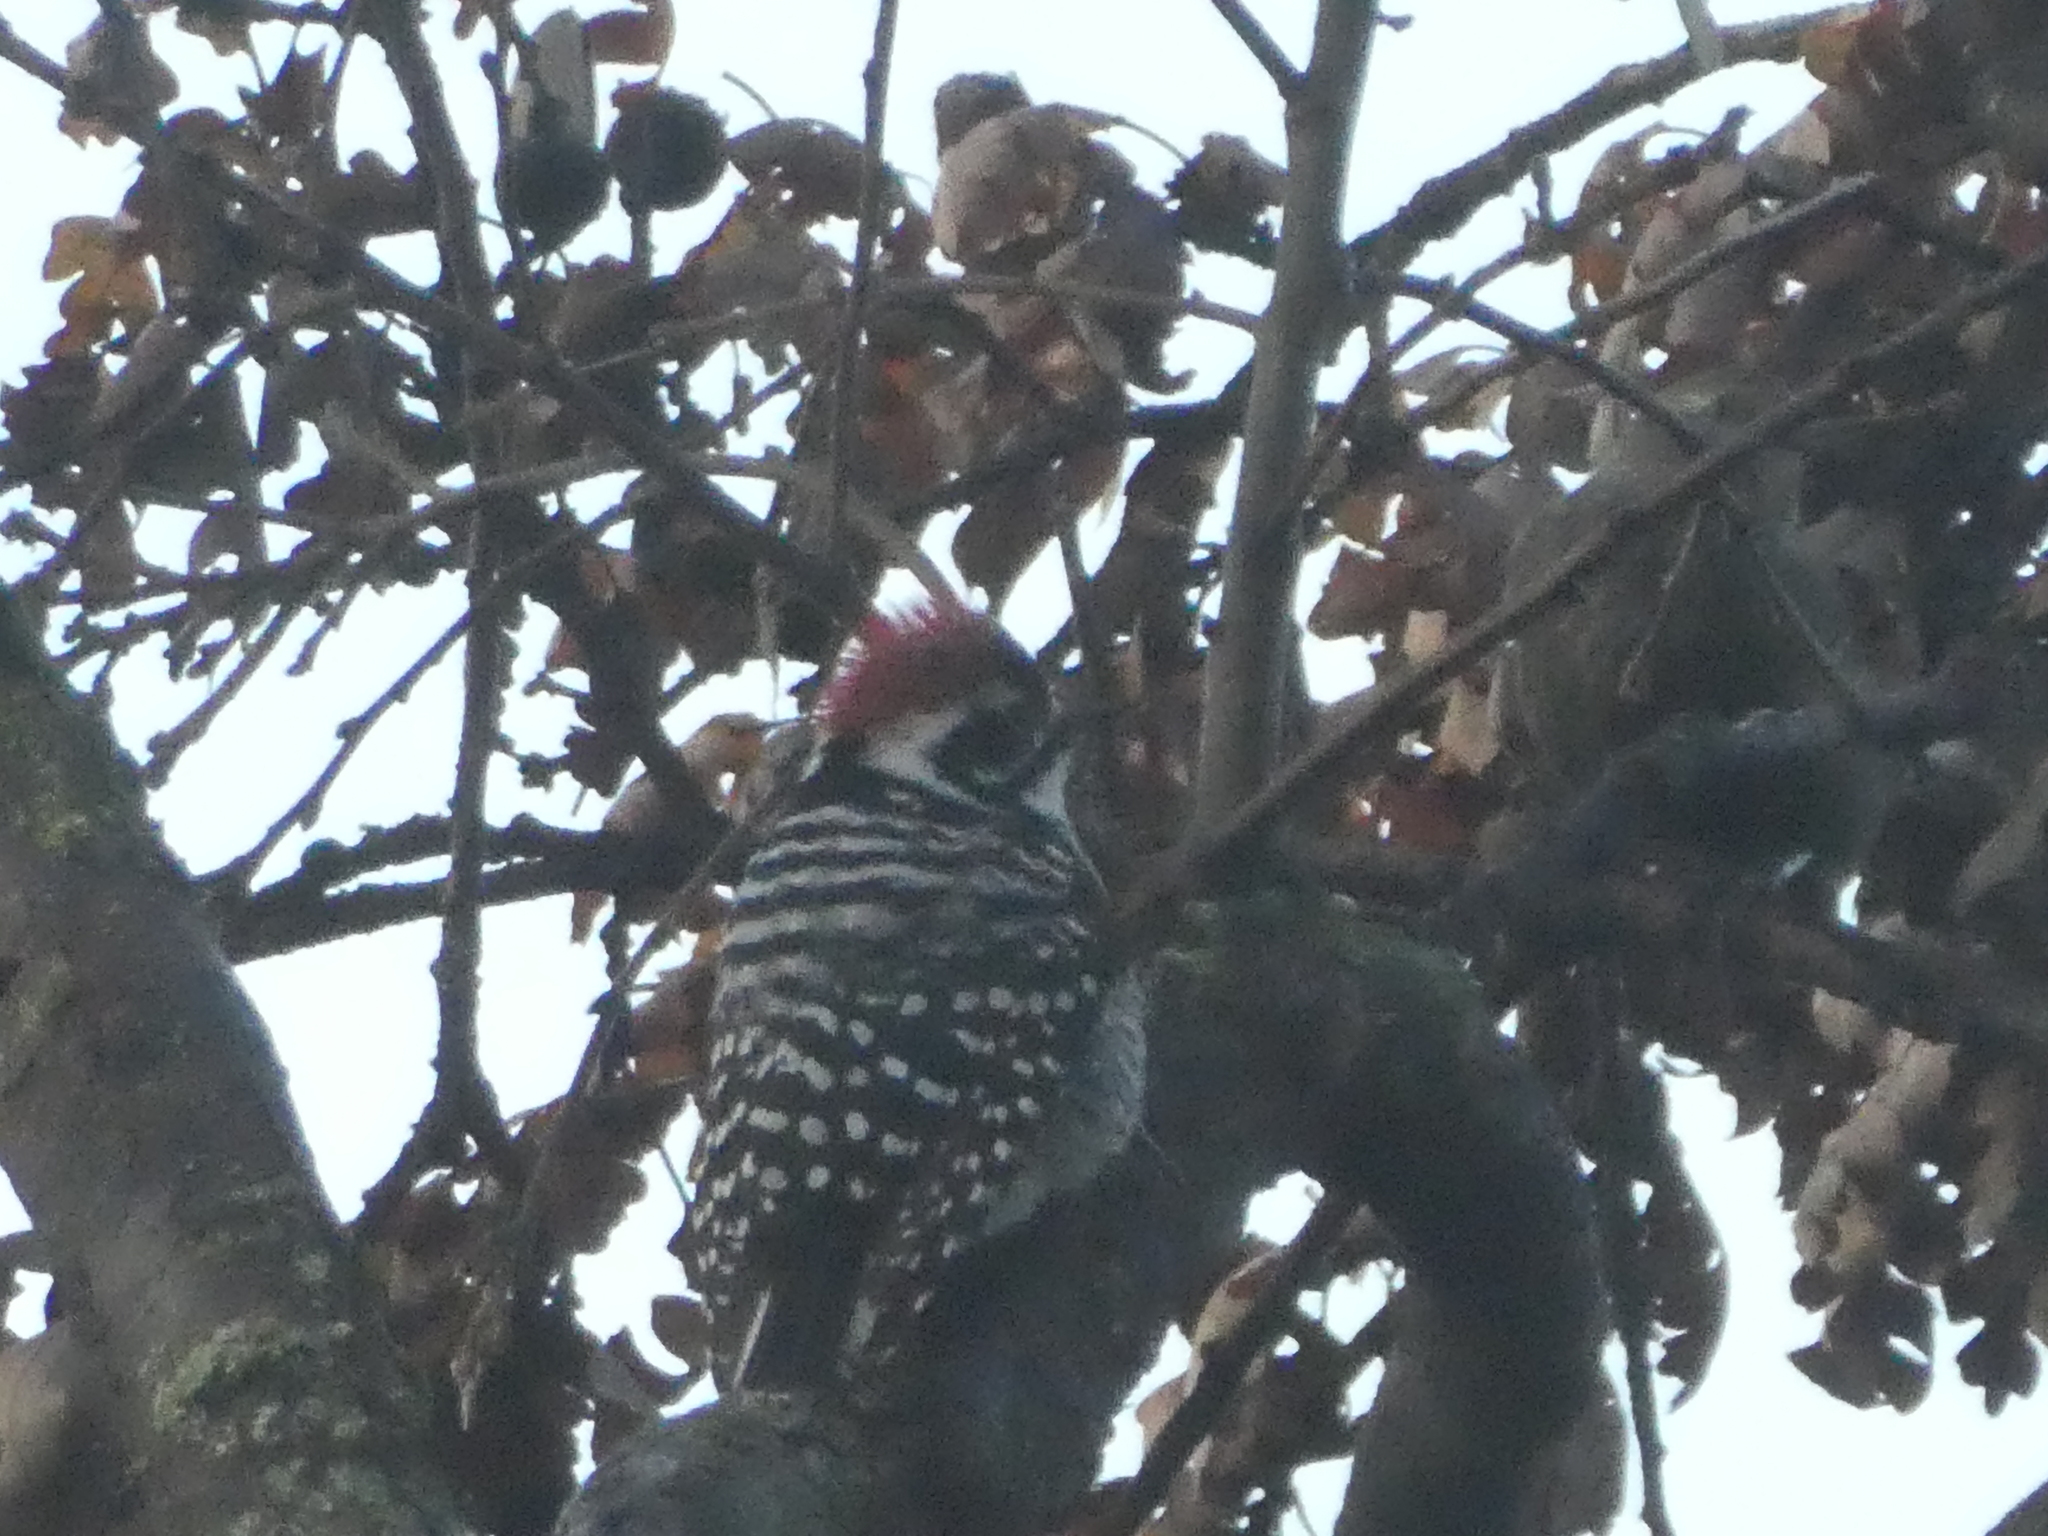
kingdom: Animalia
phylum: Chordata
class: Aves
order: Piciformes
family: Picidae
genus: Dryobates
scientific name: Dryobates nuttallii
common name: Nuttall's woodpecker
